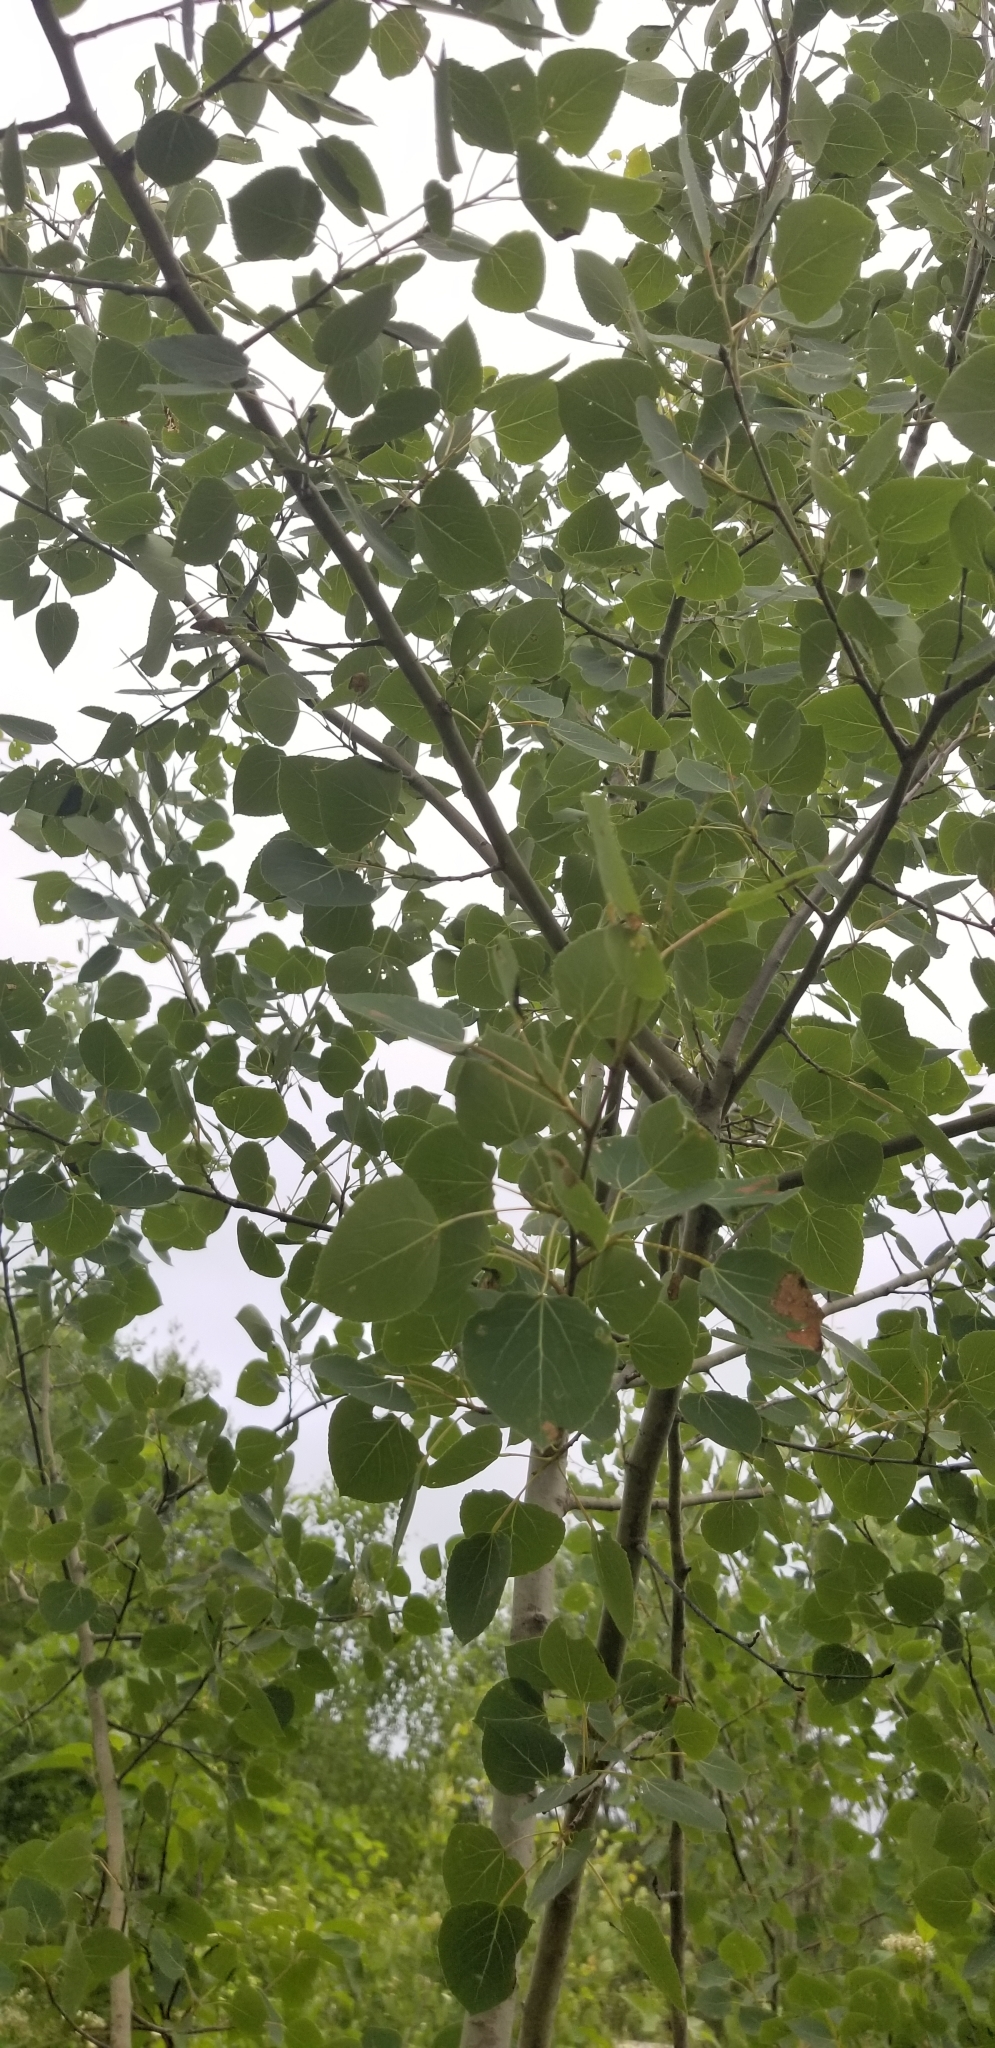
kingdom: Plantae
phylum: Tracheophyta
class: Magnoliopsida
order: Malpighiales
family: Salicaceae
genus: Populus
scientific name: Populus tremuloides
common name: Quaking aspen
